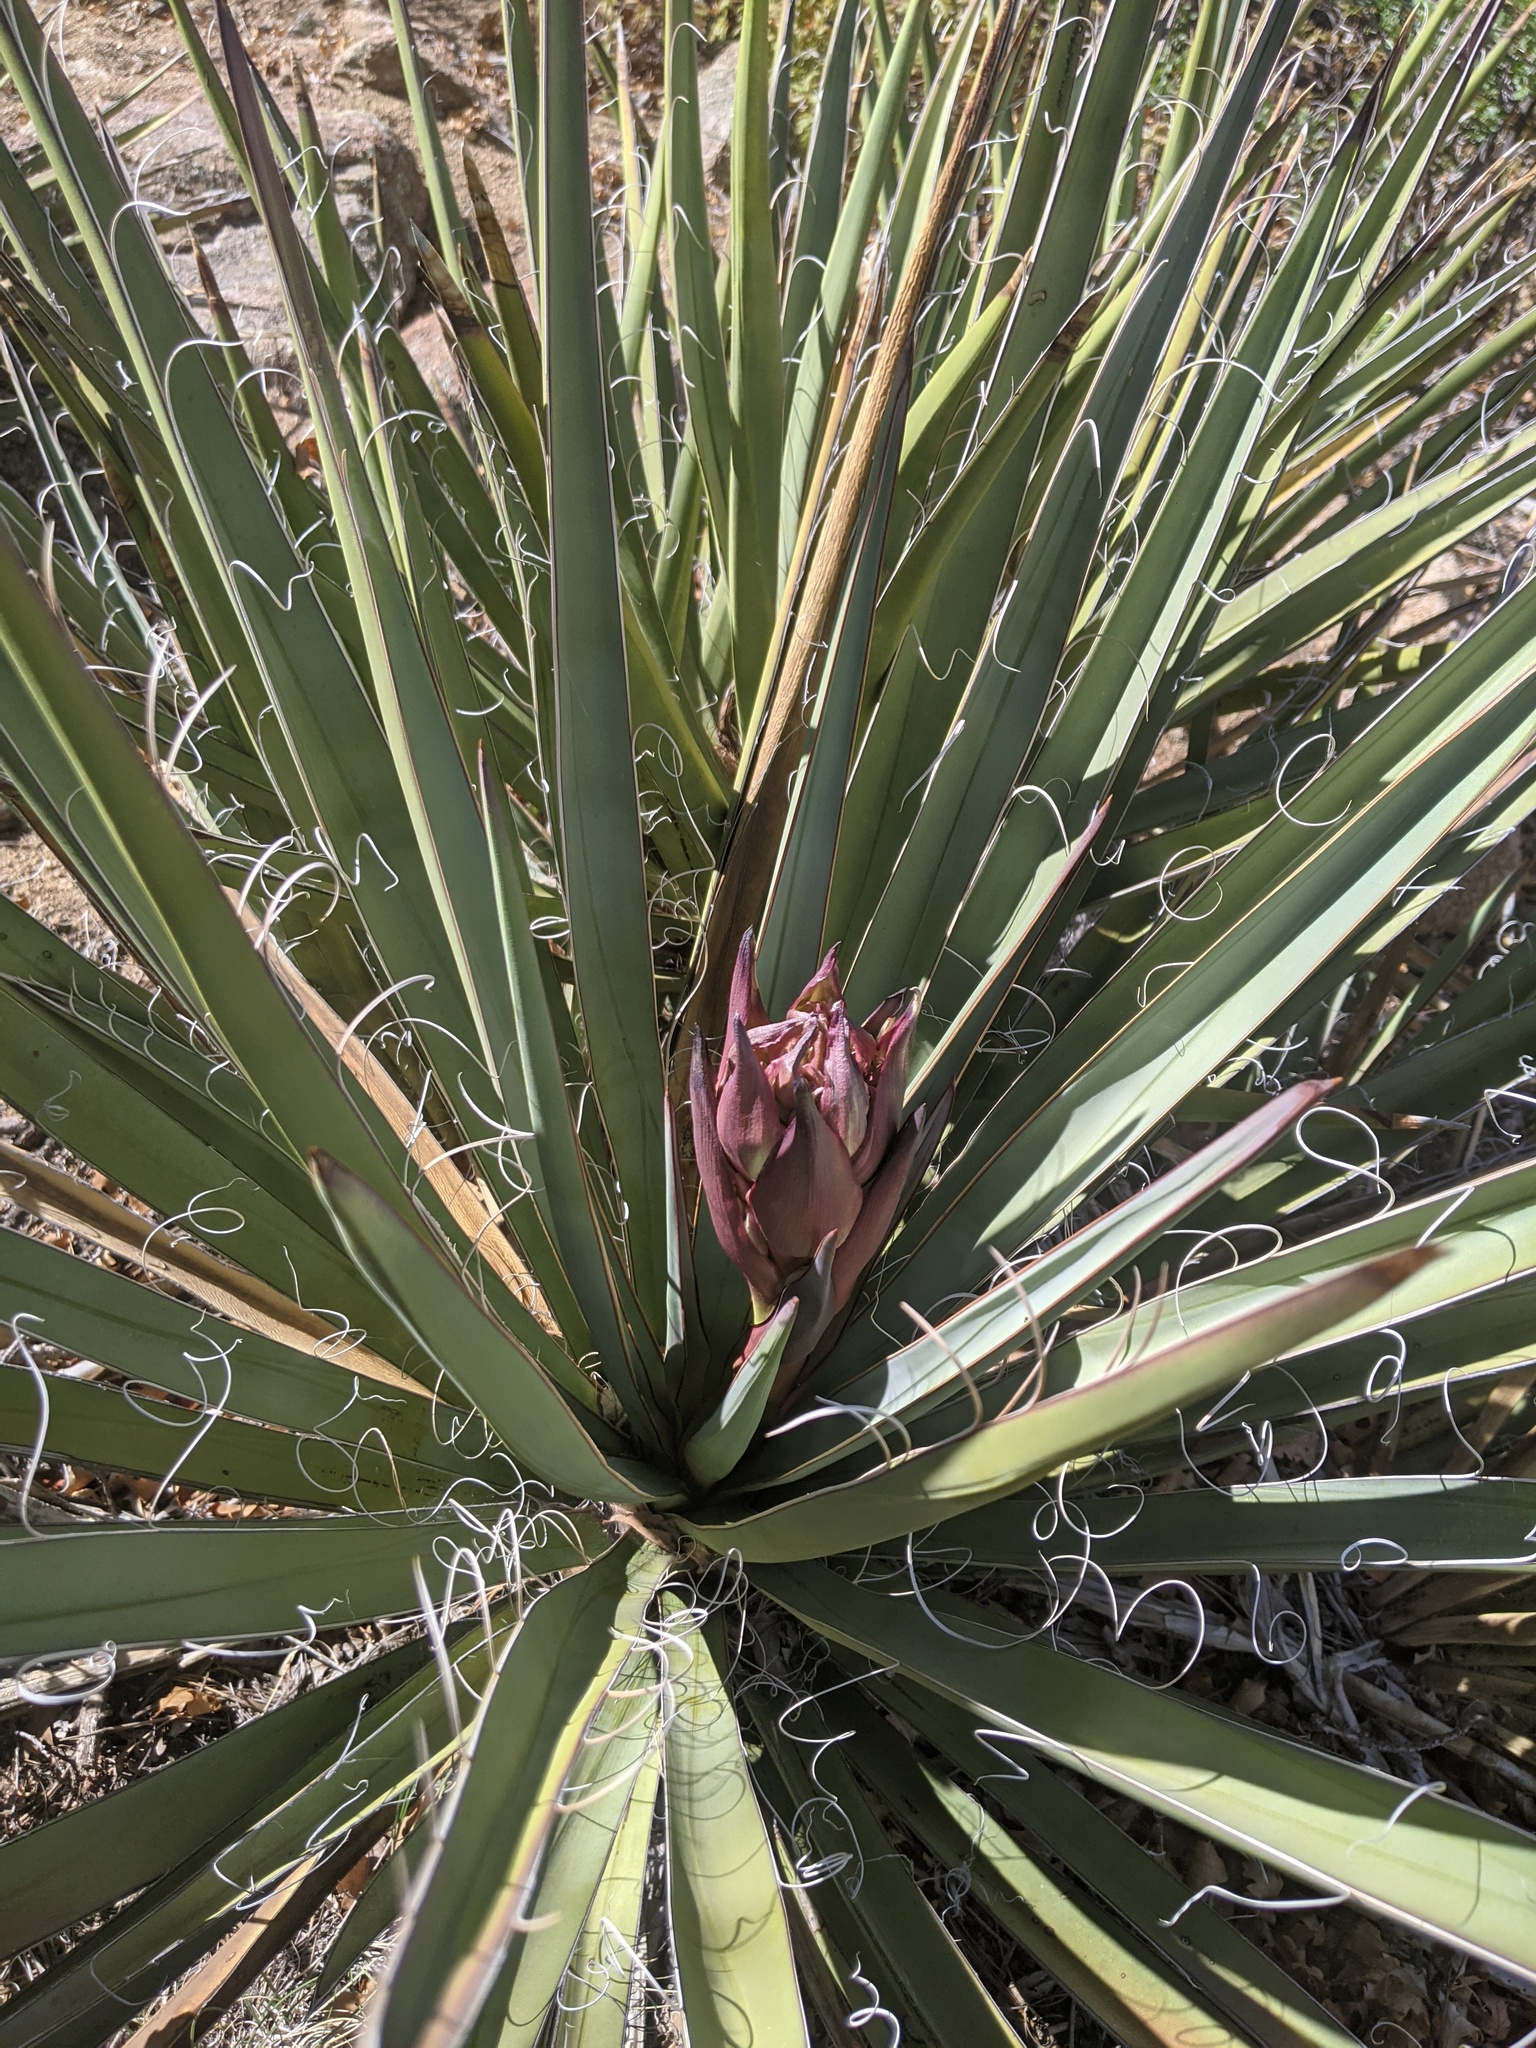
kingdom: Plantae
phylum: Tracheophyta
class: Liliopsida
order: Asparagales
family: Asparagaceae
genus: Yucca
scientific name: Yucca baccata
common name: Banana yucca
